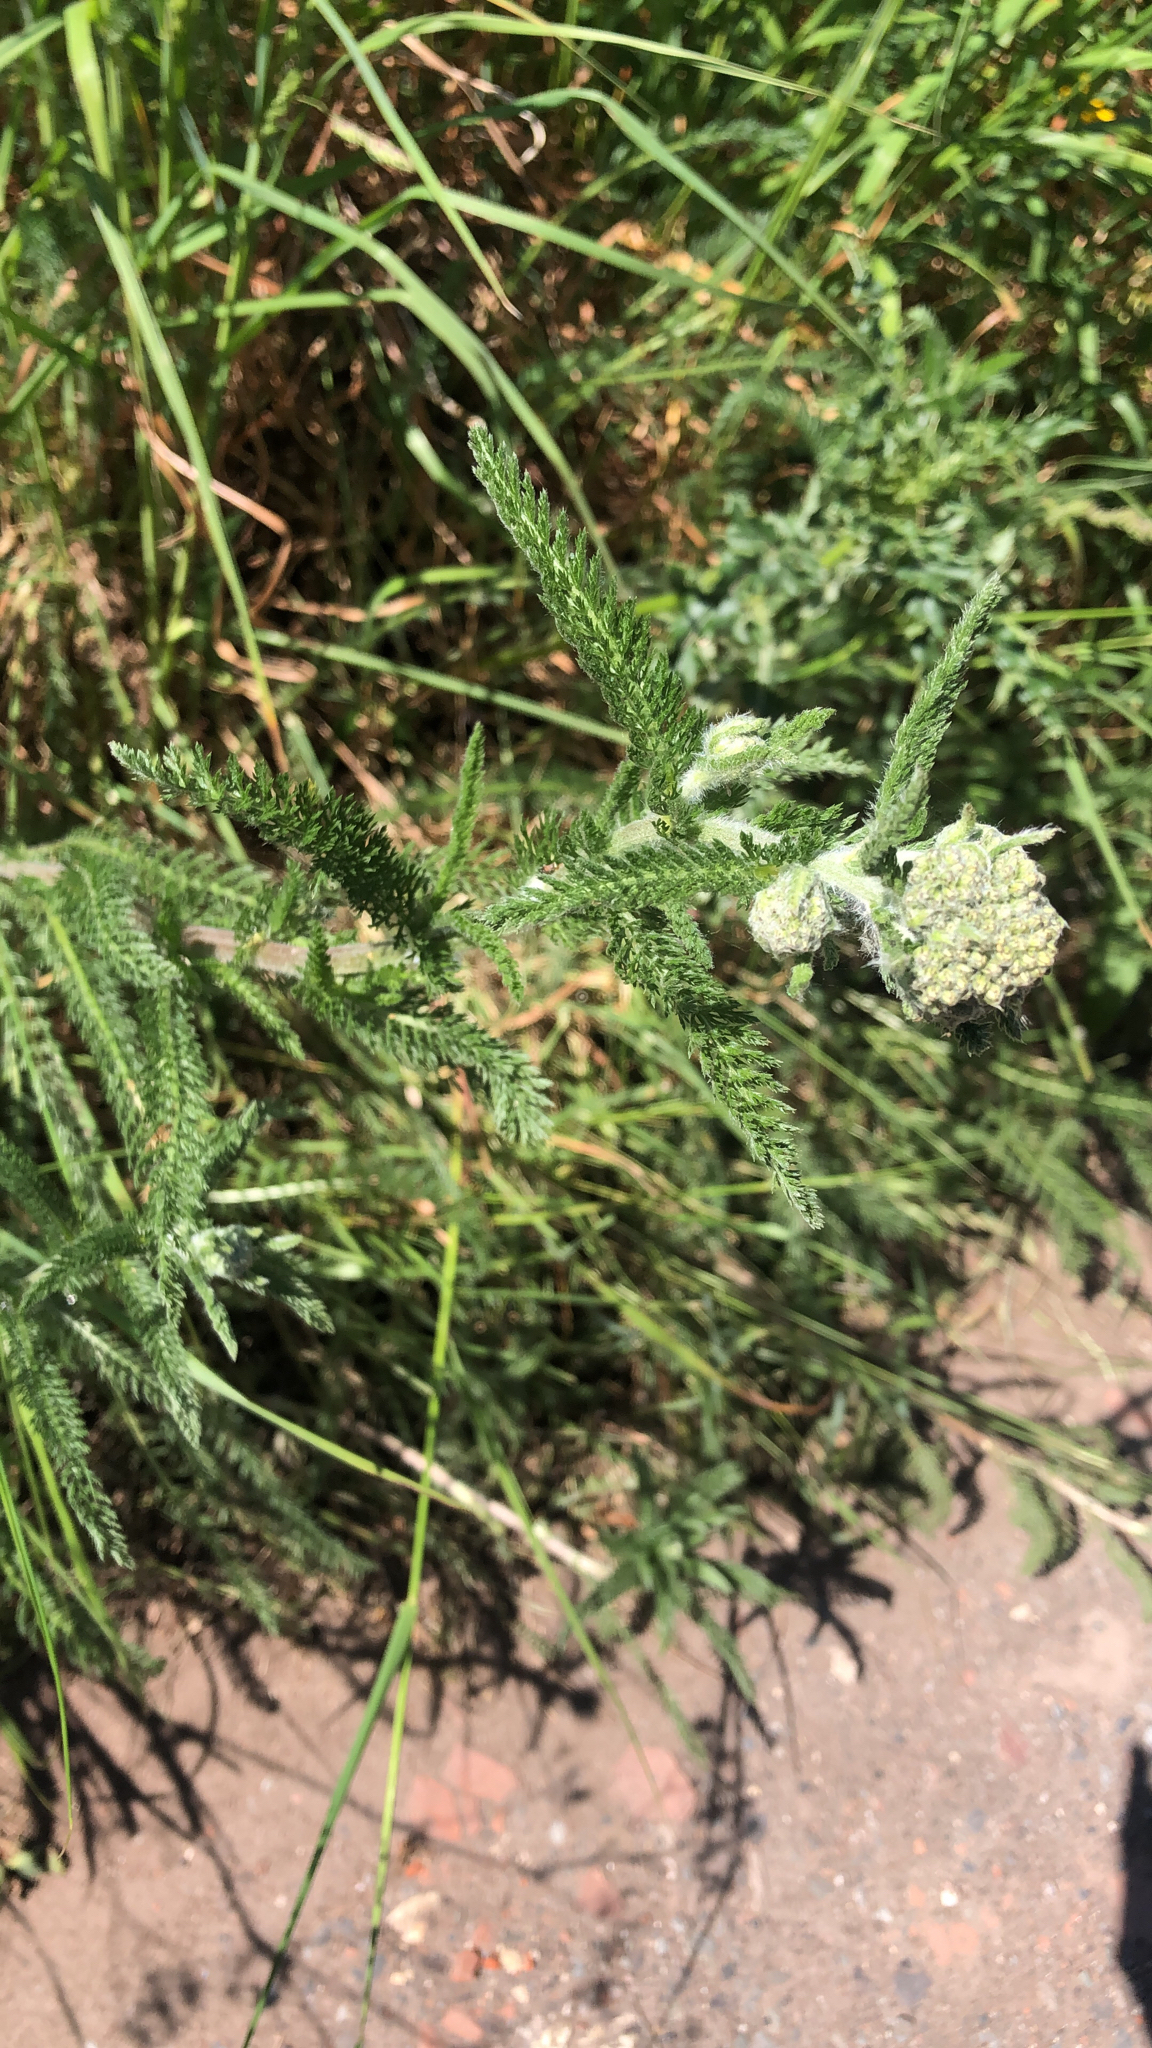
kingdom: Plantae
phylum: Tracheophyta
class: Magnoliopsida
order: Asterales
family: Asteraceae
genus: Achillea
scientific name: Achillea millefolium
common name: Yarrow
